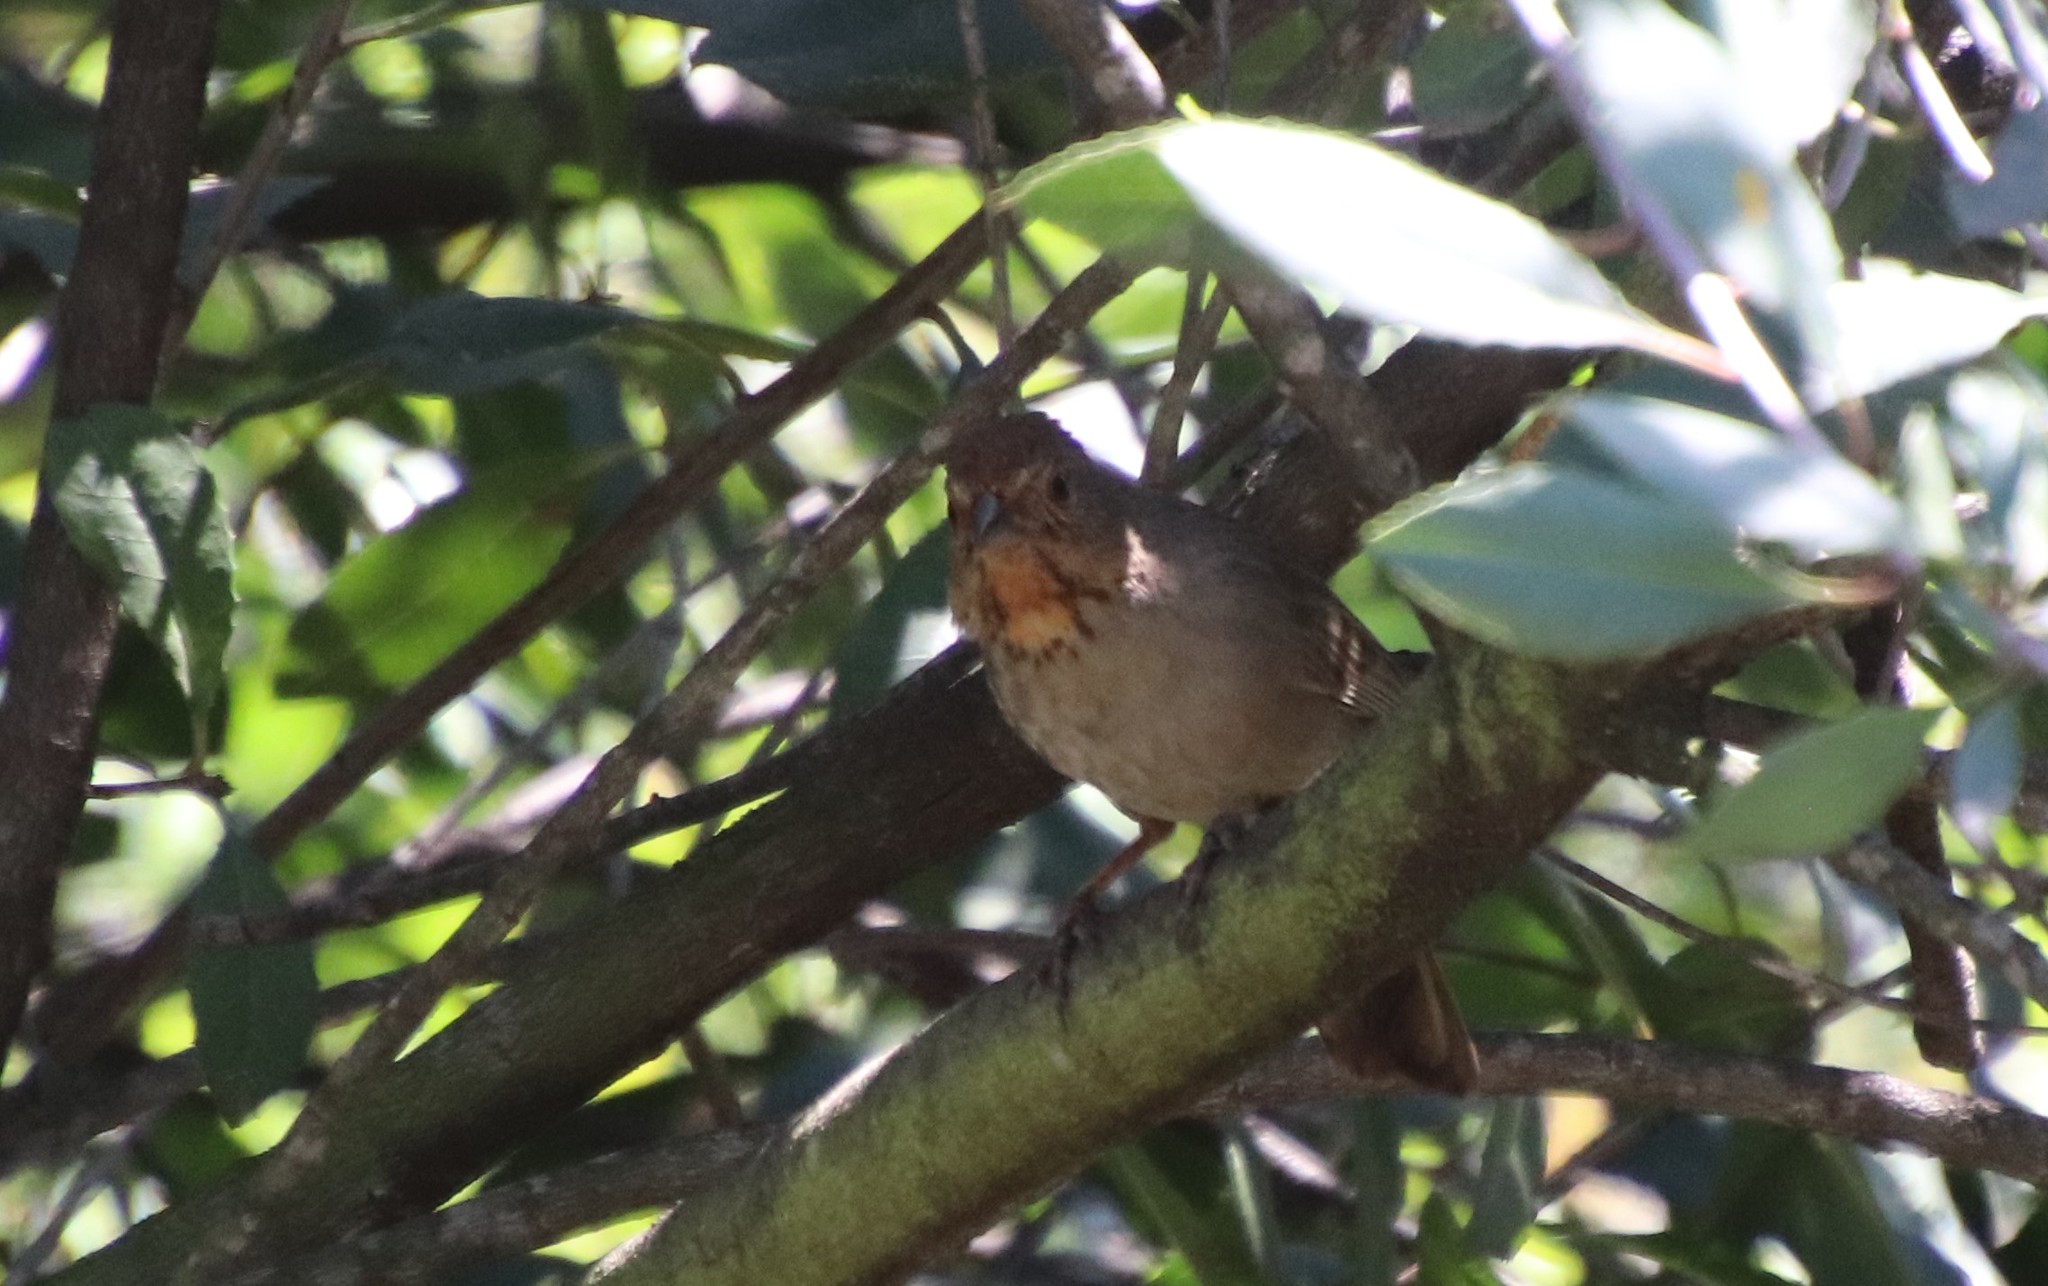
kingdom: Animalia
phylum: Chordata
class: Aves
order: Passeriformes
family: Passerellidae
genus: Melozone
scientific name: Melozone crissalis
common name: California towhee
